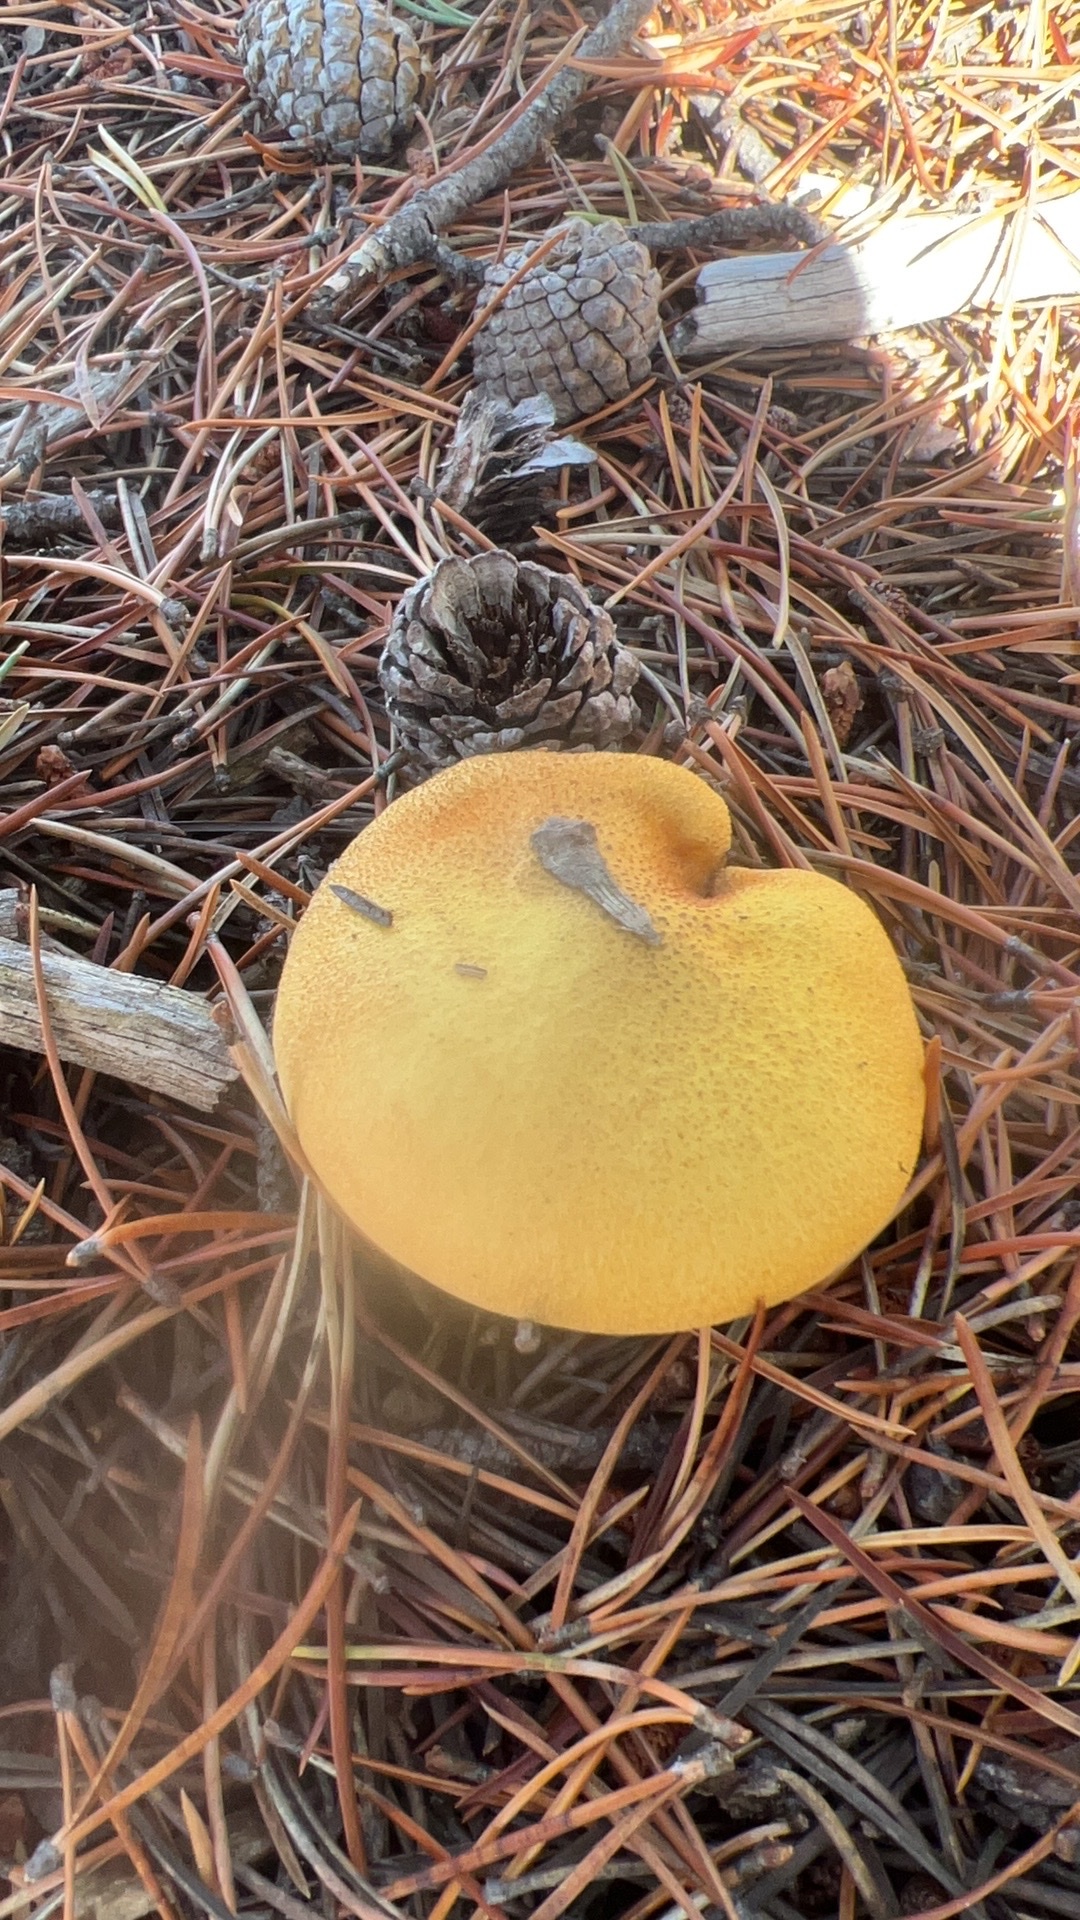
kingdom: Fungi
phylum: Basidiomycota
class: Agaricomycetes
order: Boletales
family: Suillaceae
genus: Suillus
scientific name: Suillus tomentosus
